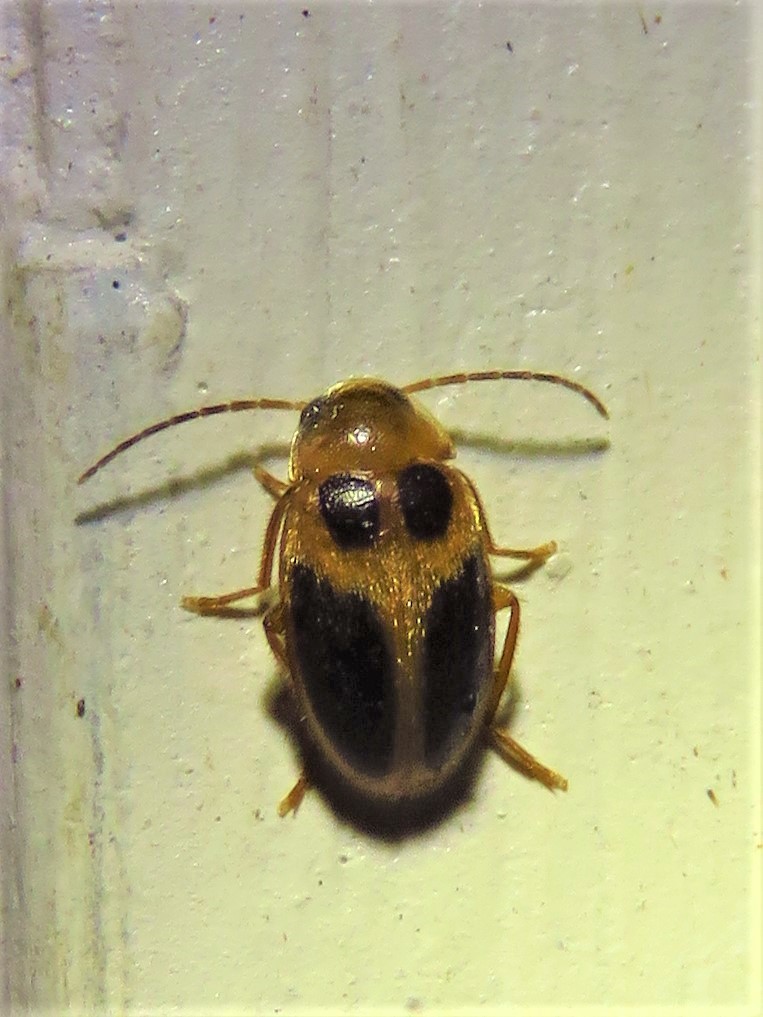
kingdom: Animalia
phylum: Arthropoda
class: Insecta
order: Coleoptera
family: Scirtidae
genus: Sacodes
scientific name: Sacodes pulchella
